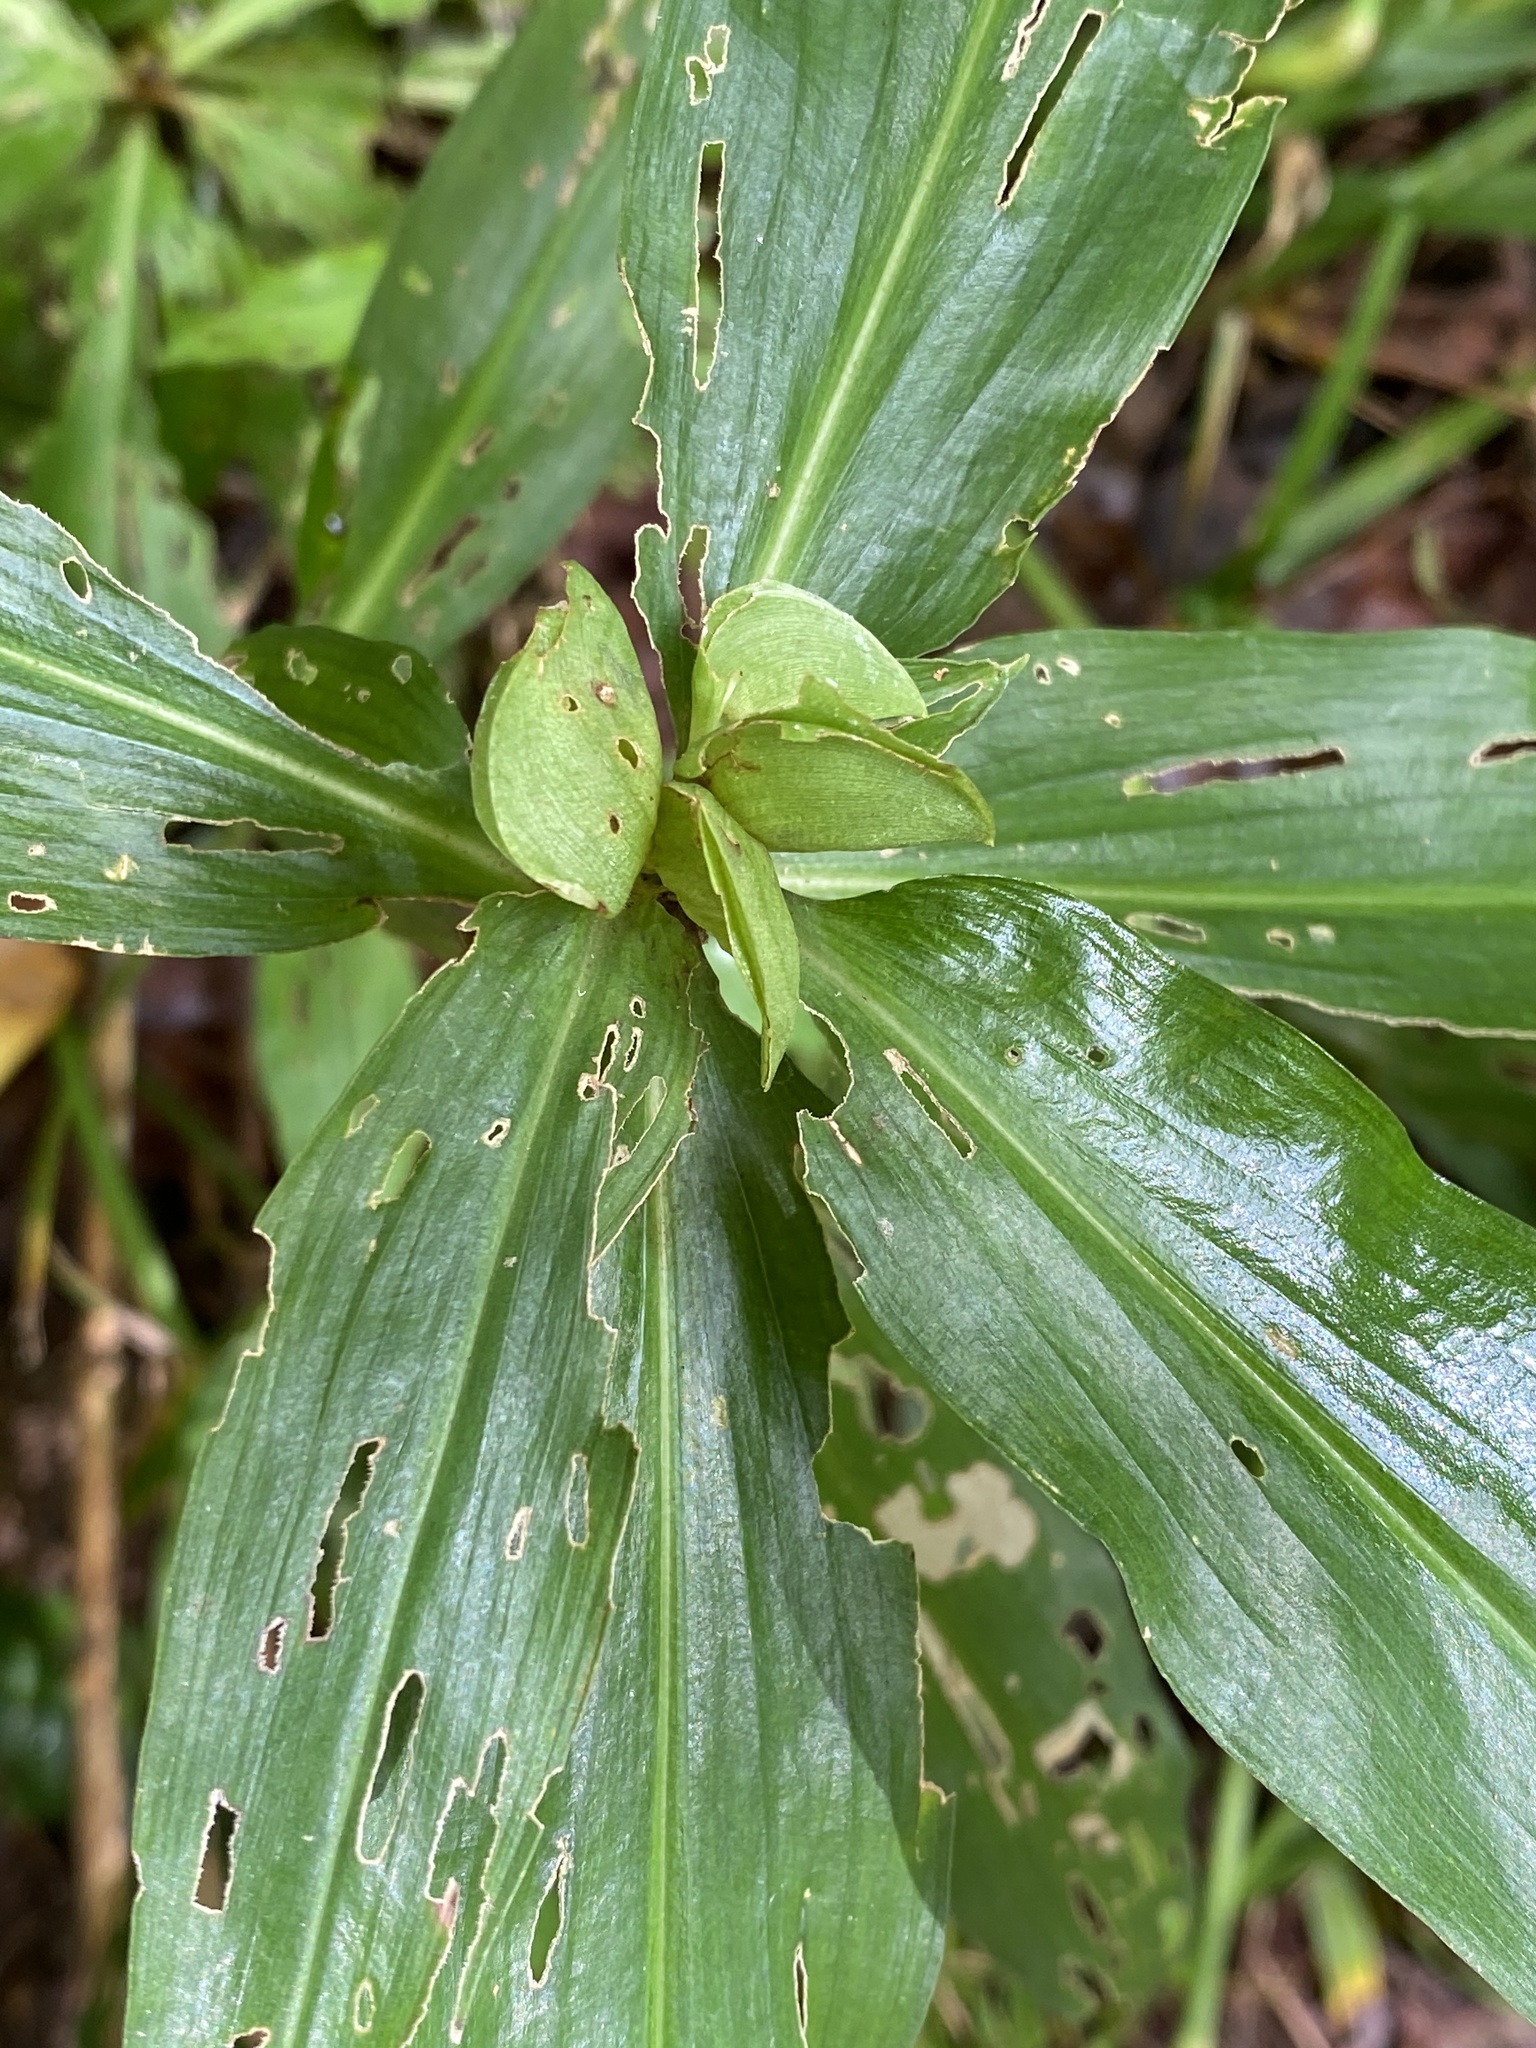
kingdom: Plantae
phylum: Tracheophyta
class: Liliopsida
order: Commelinales
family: Commelinaceae
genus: Commelina
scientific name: Commelina virginica
